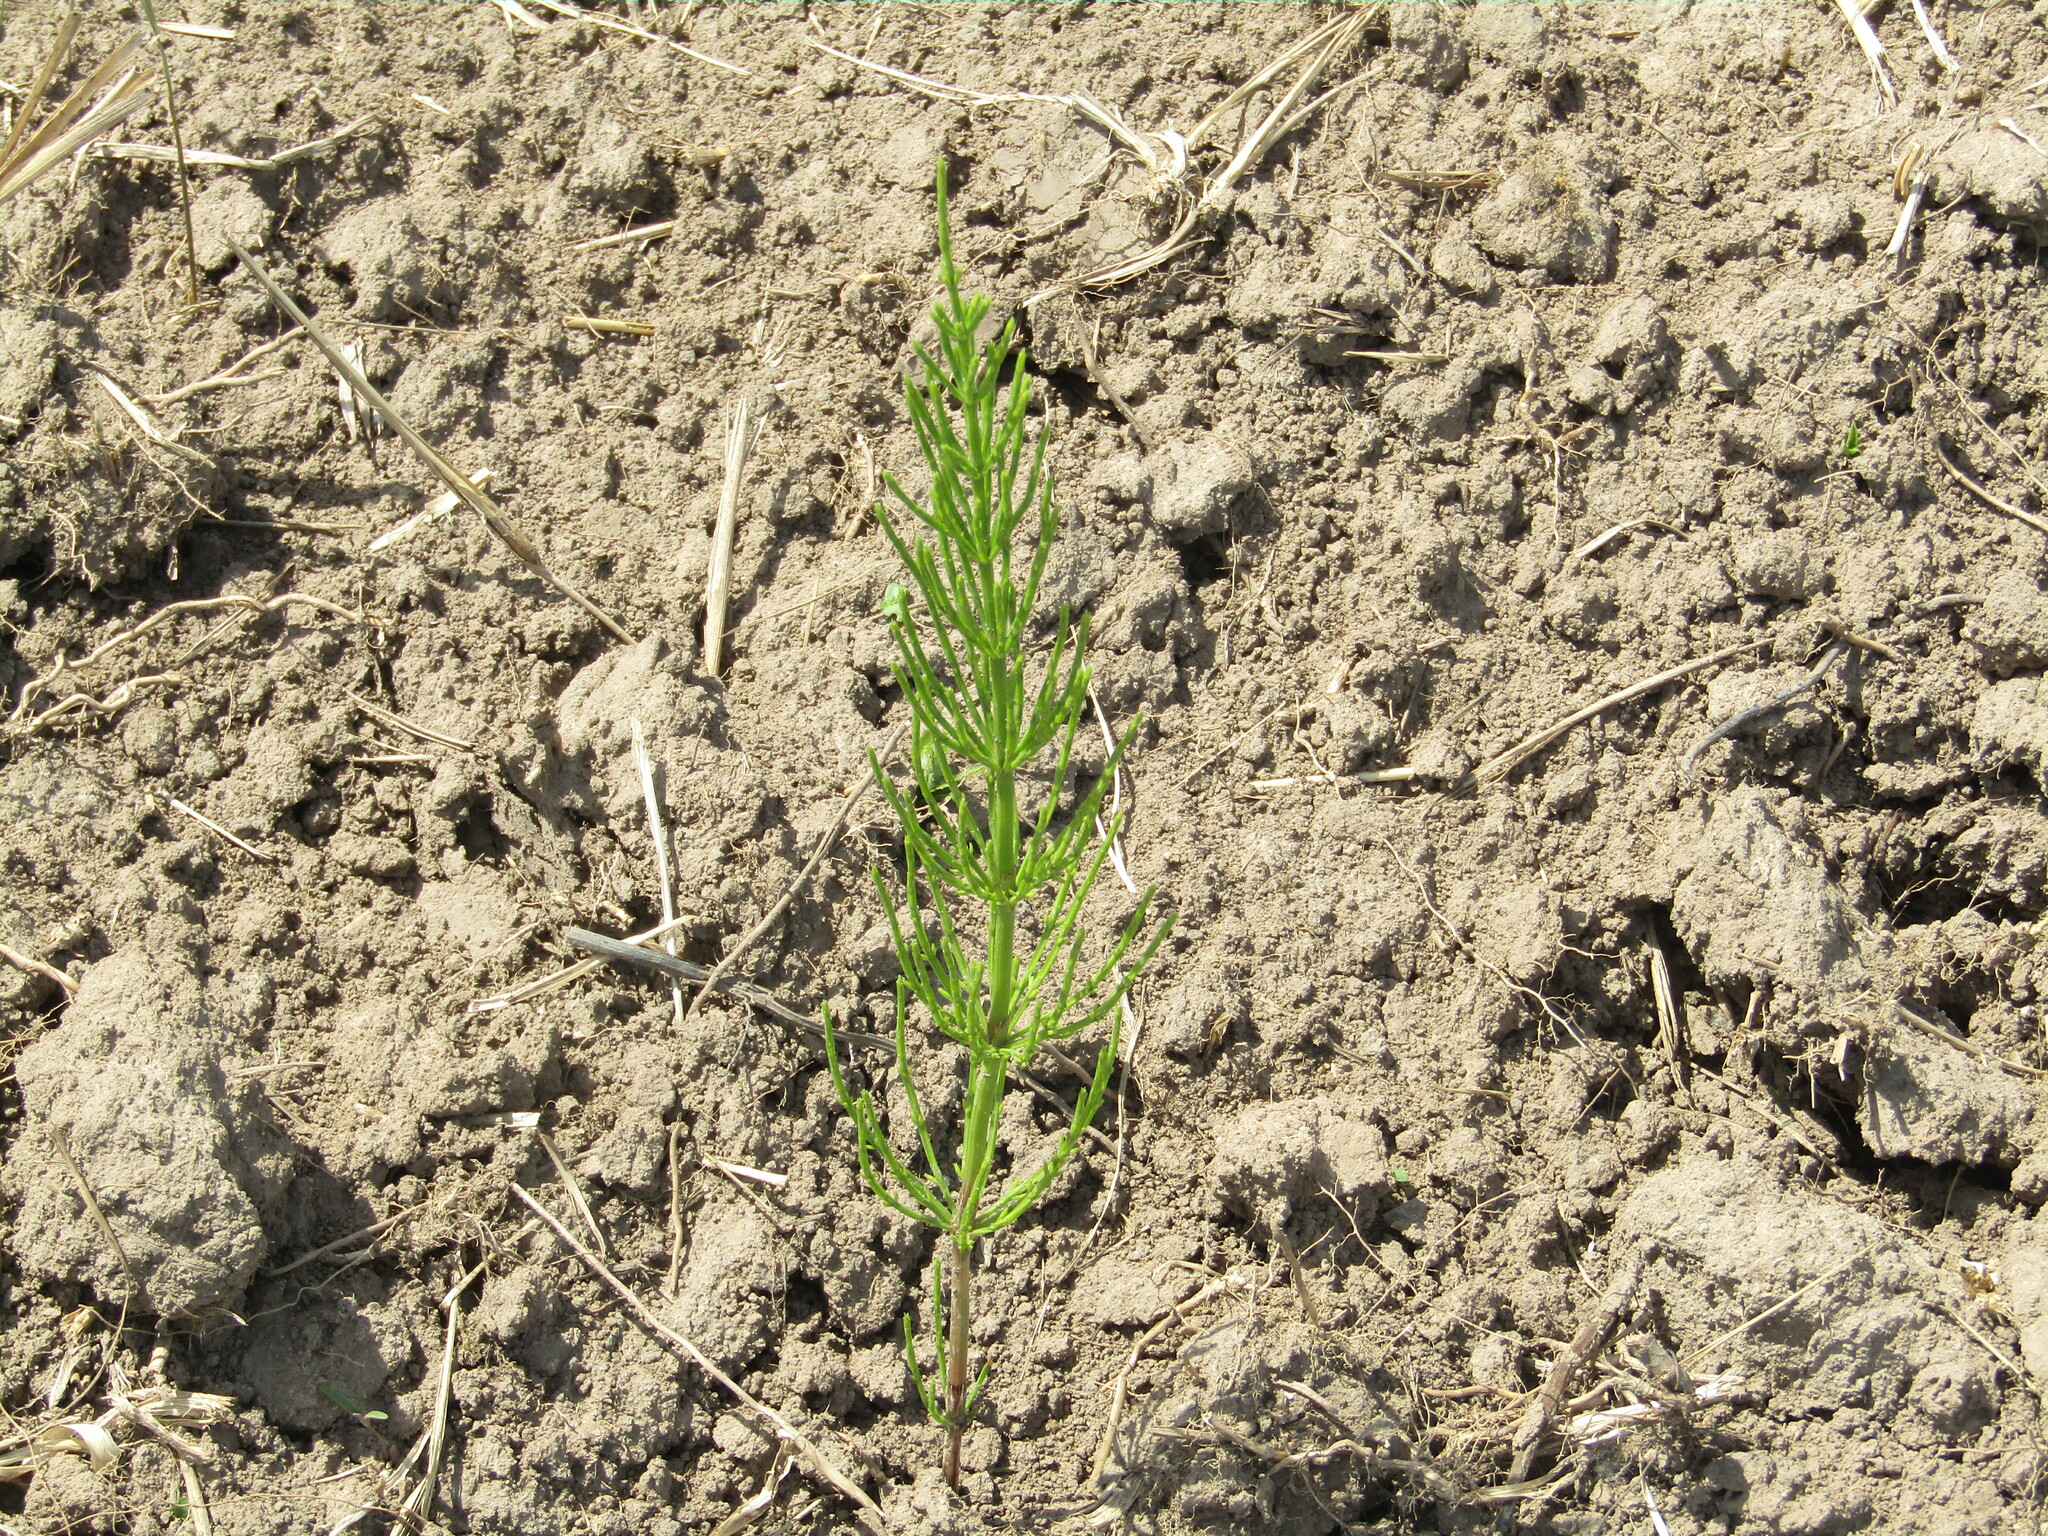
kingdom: Plantae
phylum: Tracheophyta
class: Polypodiopsida
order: Equisetales
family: Equisetaceae
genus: Equisetum
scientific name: Equisetum arvense
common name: Field horsetail
